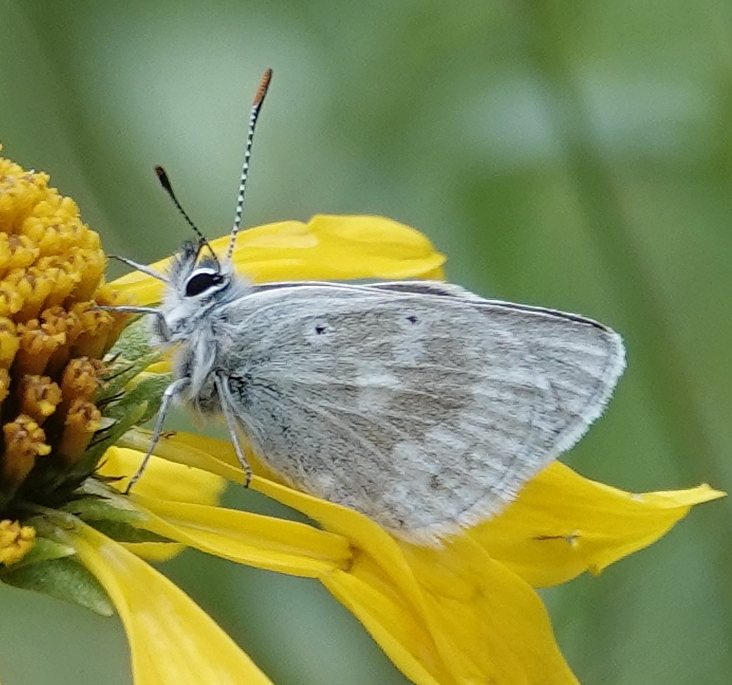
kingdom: Animalia
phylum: Arthropoda
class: Insecta
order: Lepidoptera
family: Lycaenidae
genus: Agriades
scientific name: Agriades glandon
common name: Glandon blue
